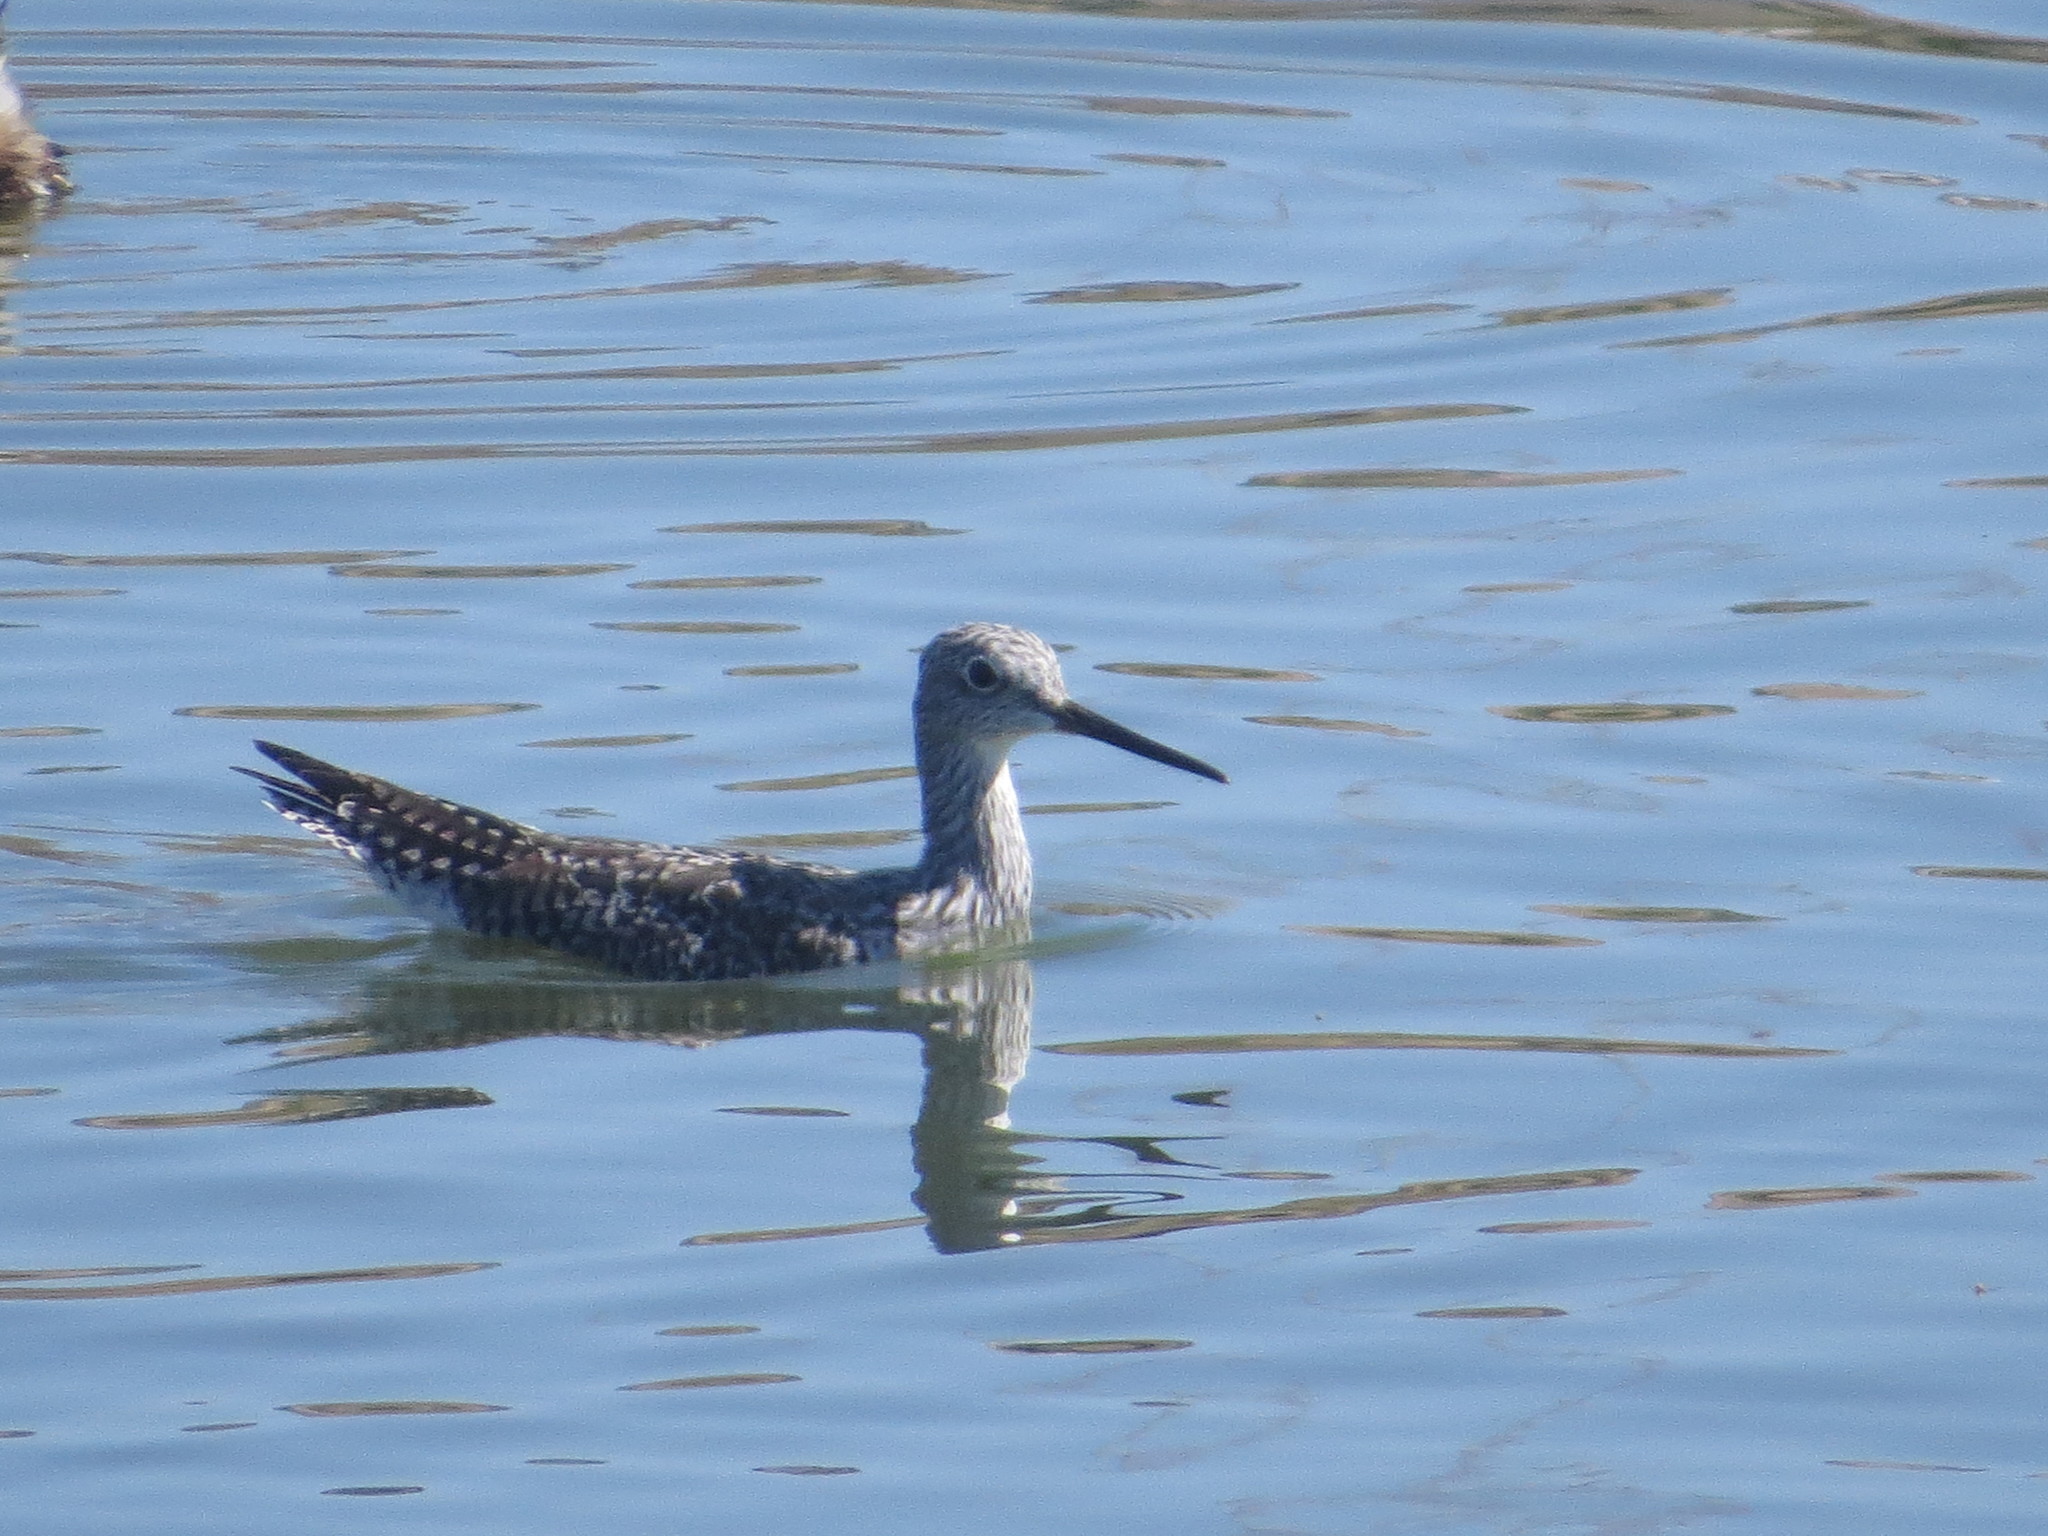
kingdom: Animalia
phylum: Chordata
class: Aves
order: Charadriiformes
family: Scolopacidae
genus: Tringa
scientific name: Tringa melanoleuca
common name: Greater yellowlegs
